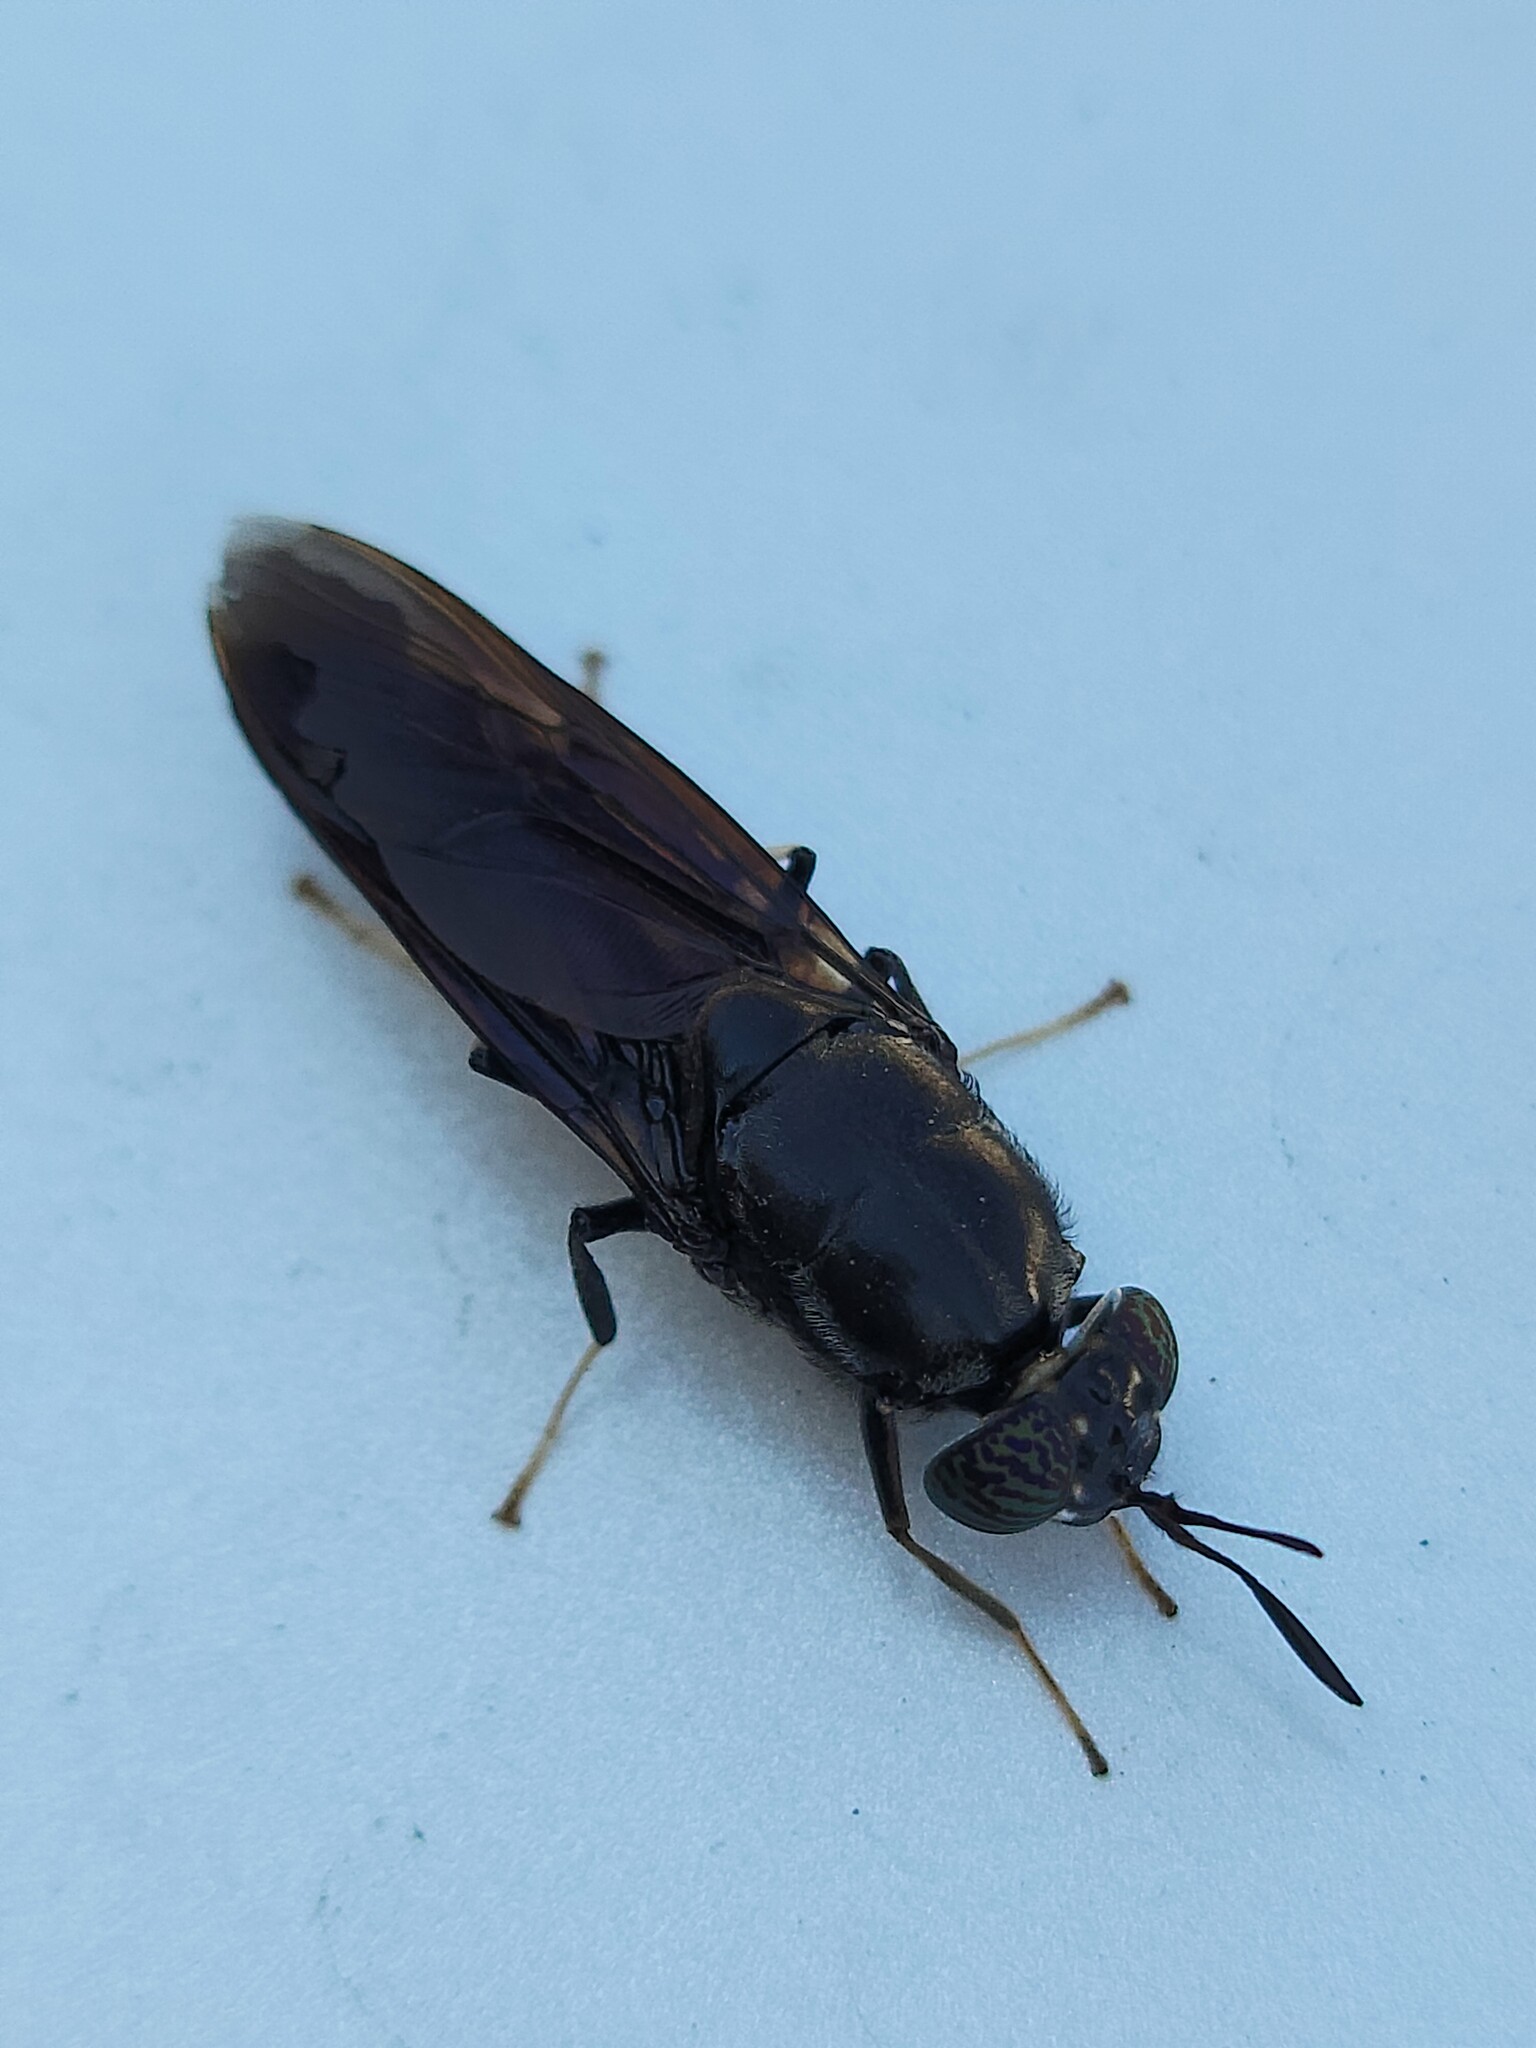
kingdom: Animalia
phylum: Arthropoda
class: Insecta
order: Diptera
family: Stratiomyidae
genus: Hermetia
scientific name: Hermetia illucens
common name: Black soldier fly
